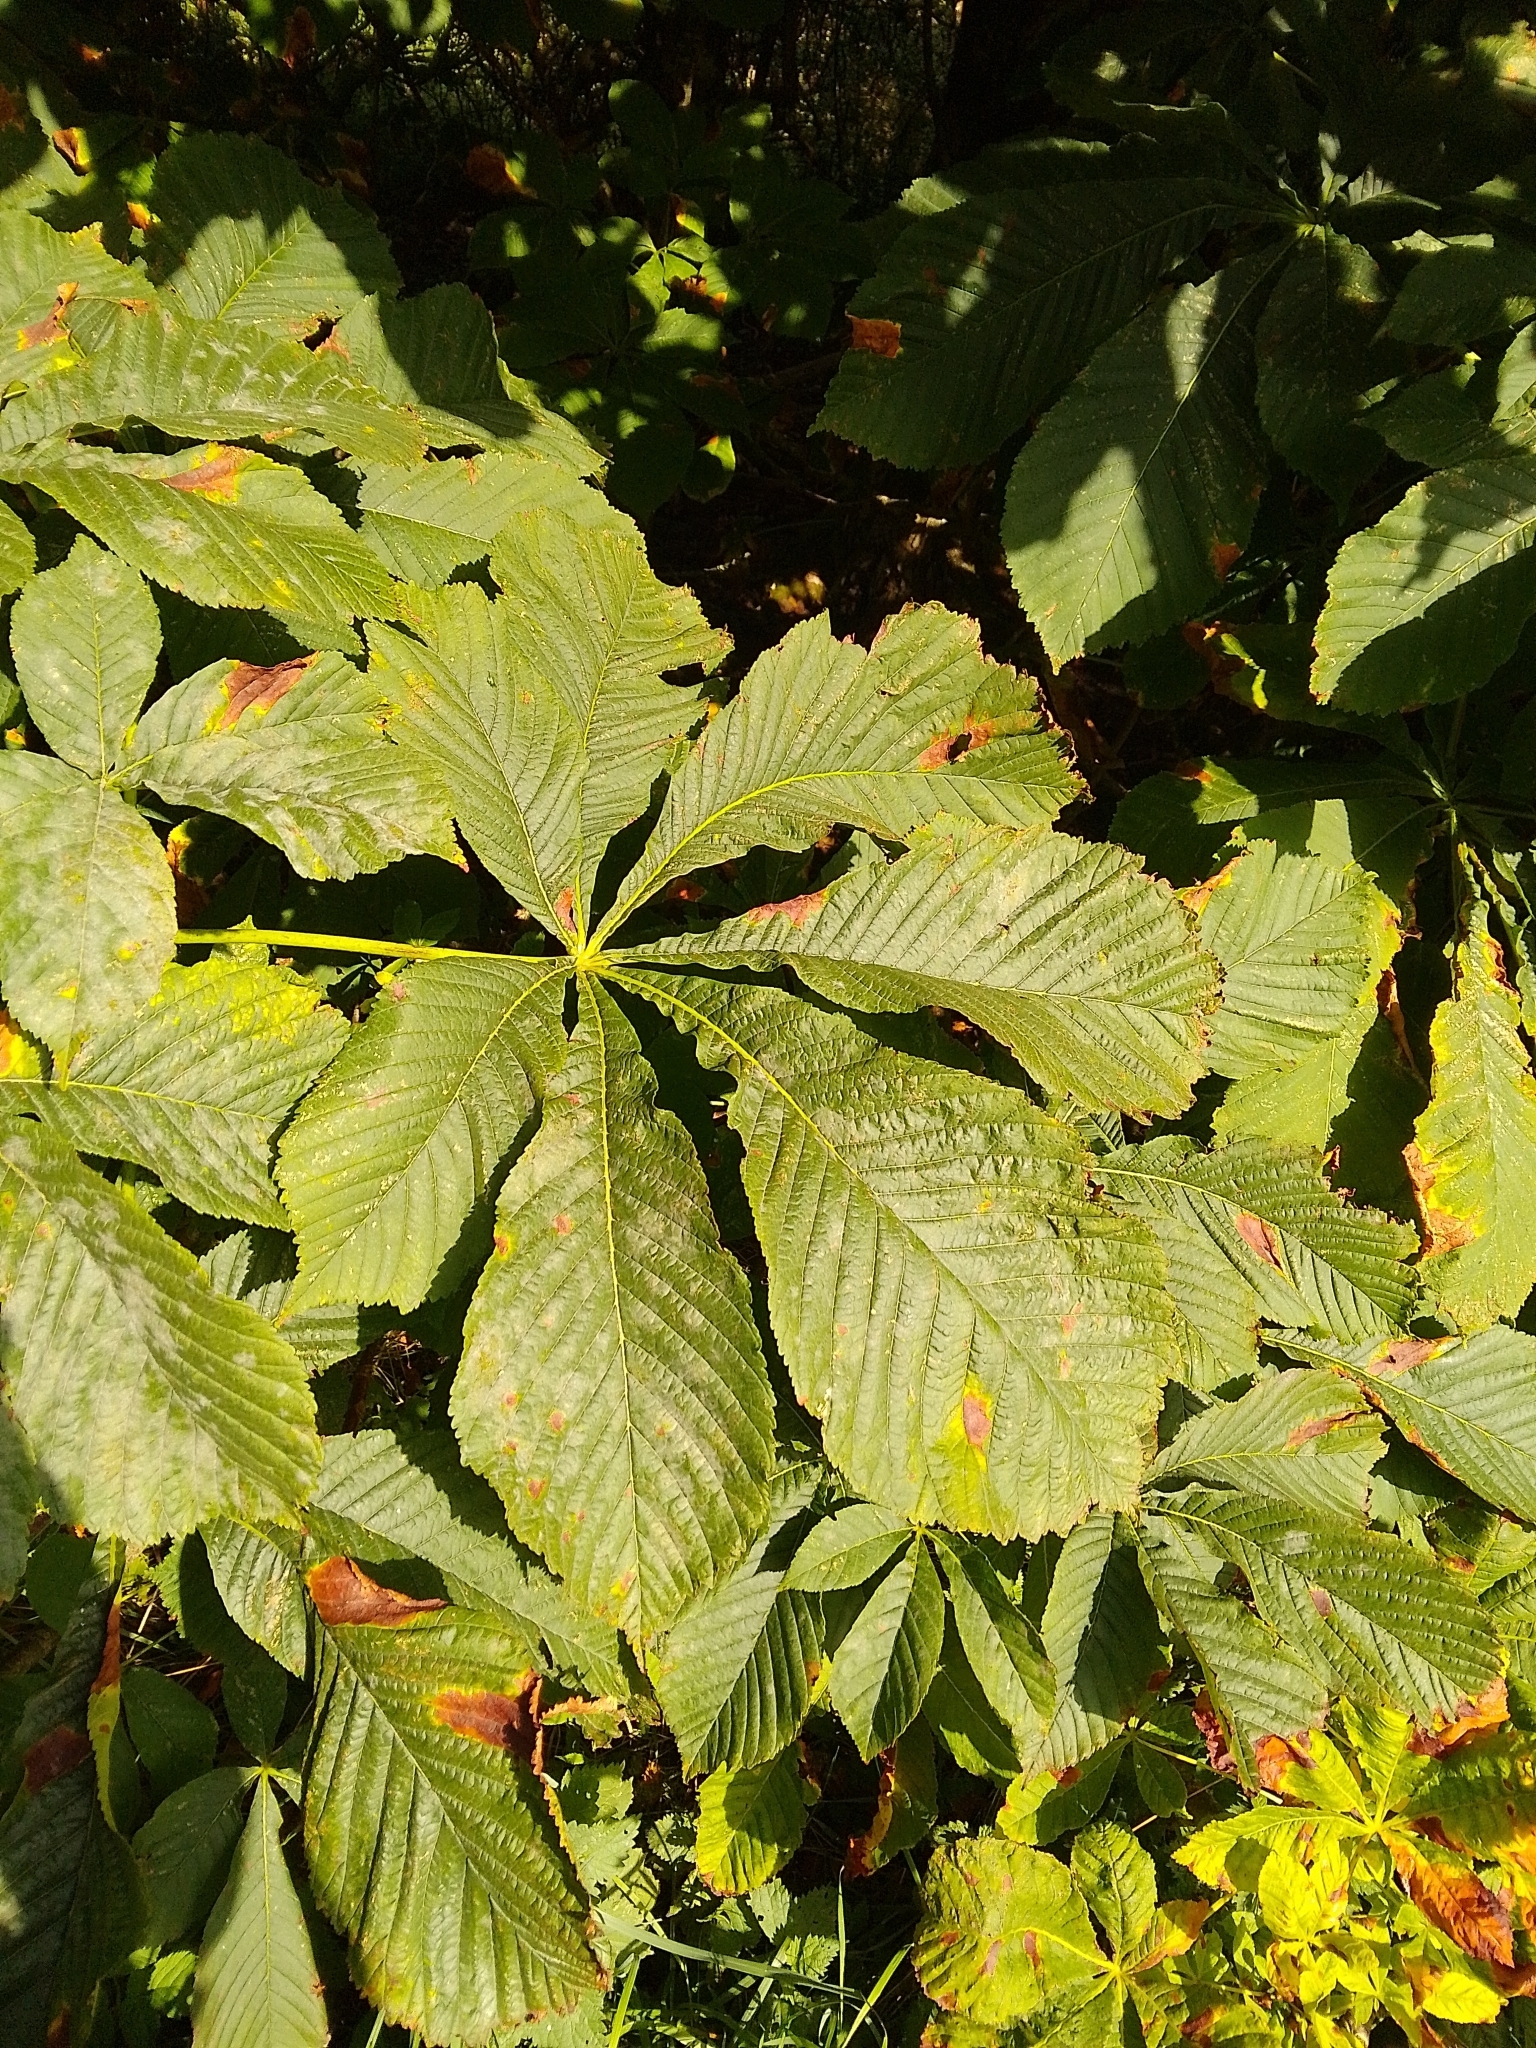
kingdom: Plantae
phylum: Tracheophyta
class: Magnoliopsida
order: Sapindales
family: Sapindaceae
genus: Aesculus
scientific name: Aesculus hippocastanum
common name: Horse-chestnut
